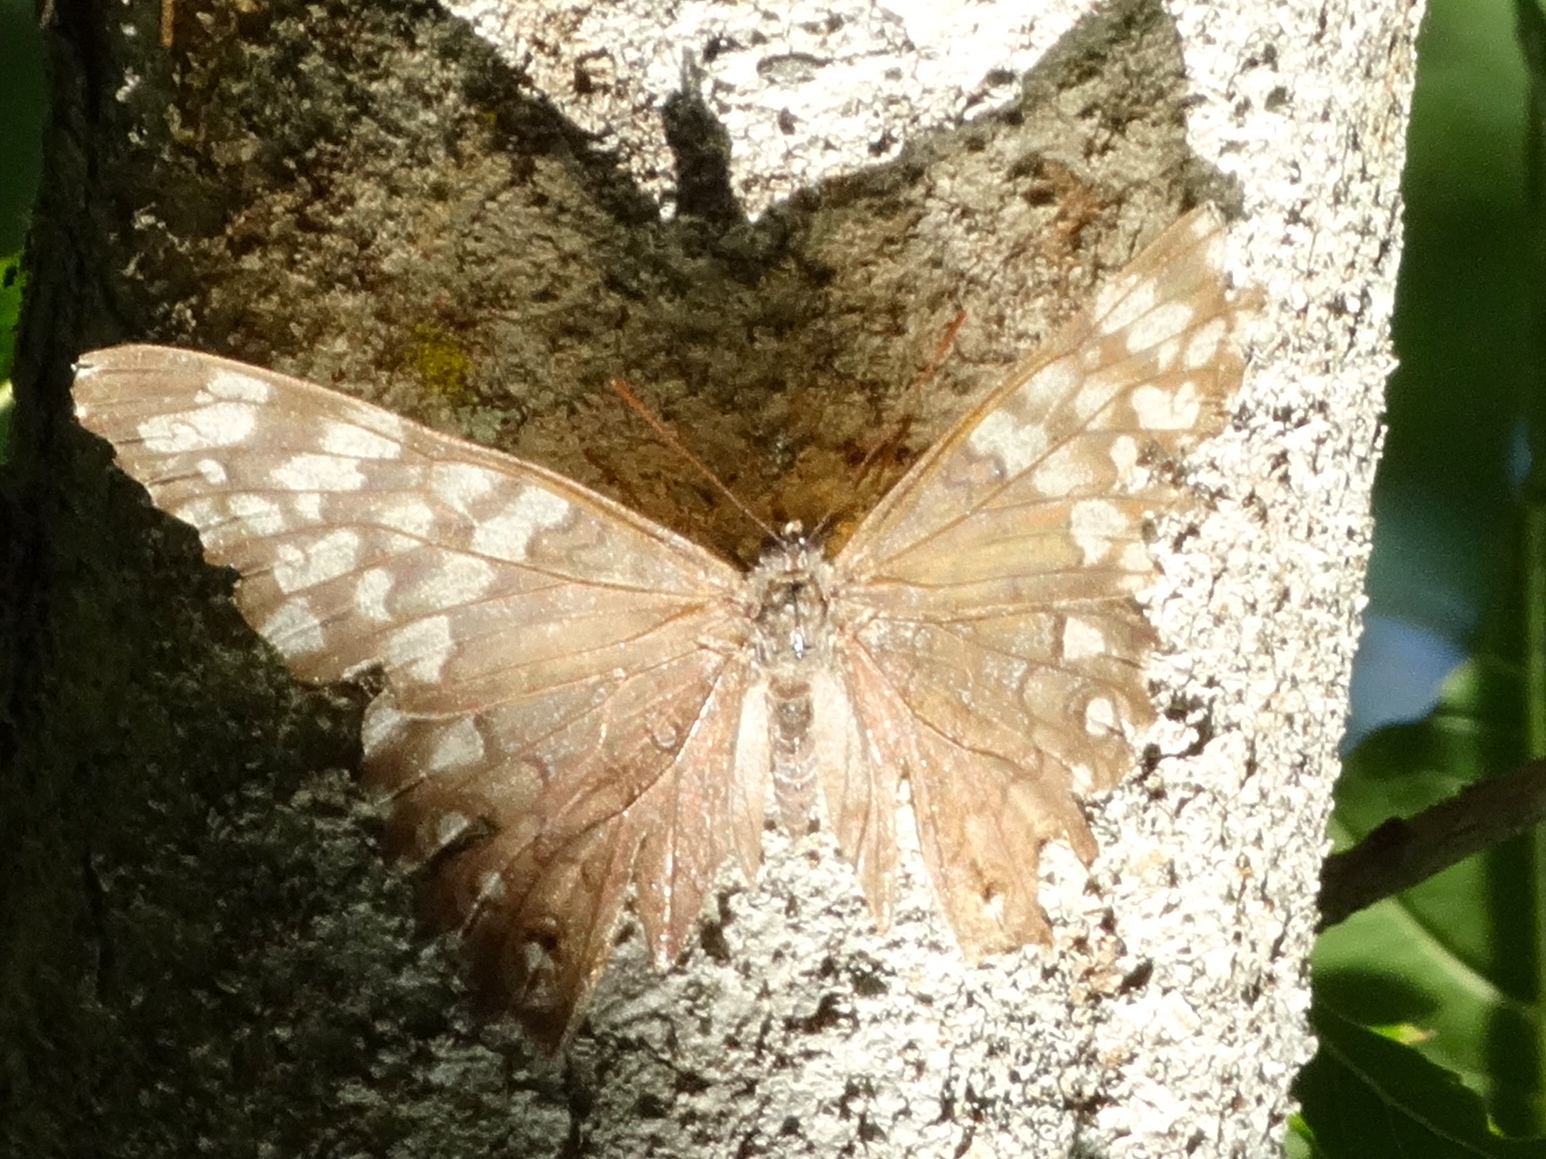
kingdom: Animalia
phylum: Arthropoda
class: Insecta
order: Lepidoptera
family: Nymphalidae
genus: Hamadryas
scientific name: Hamadryas februa
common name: Gray cracker
